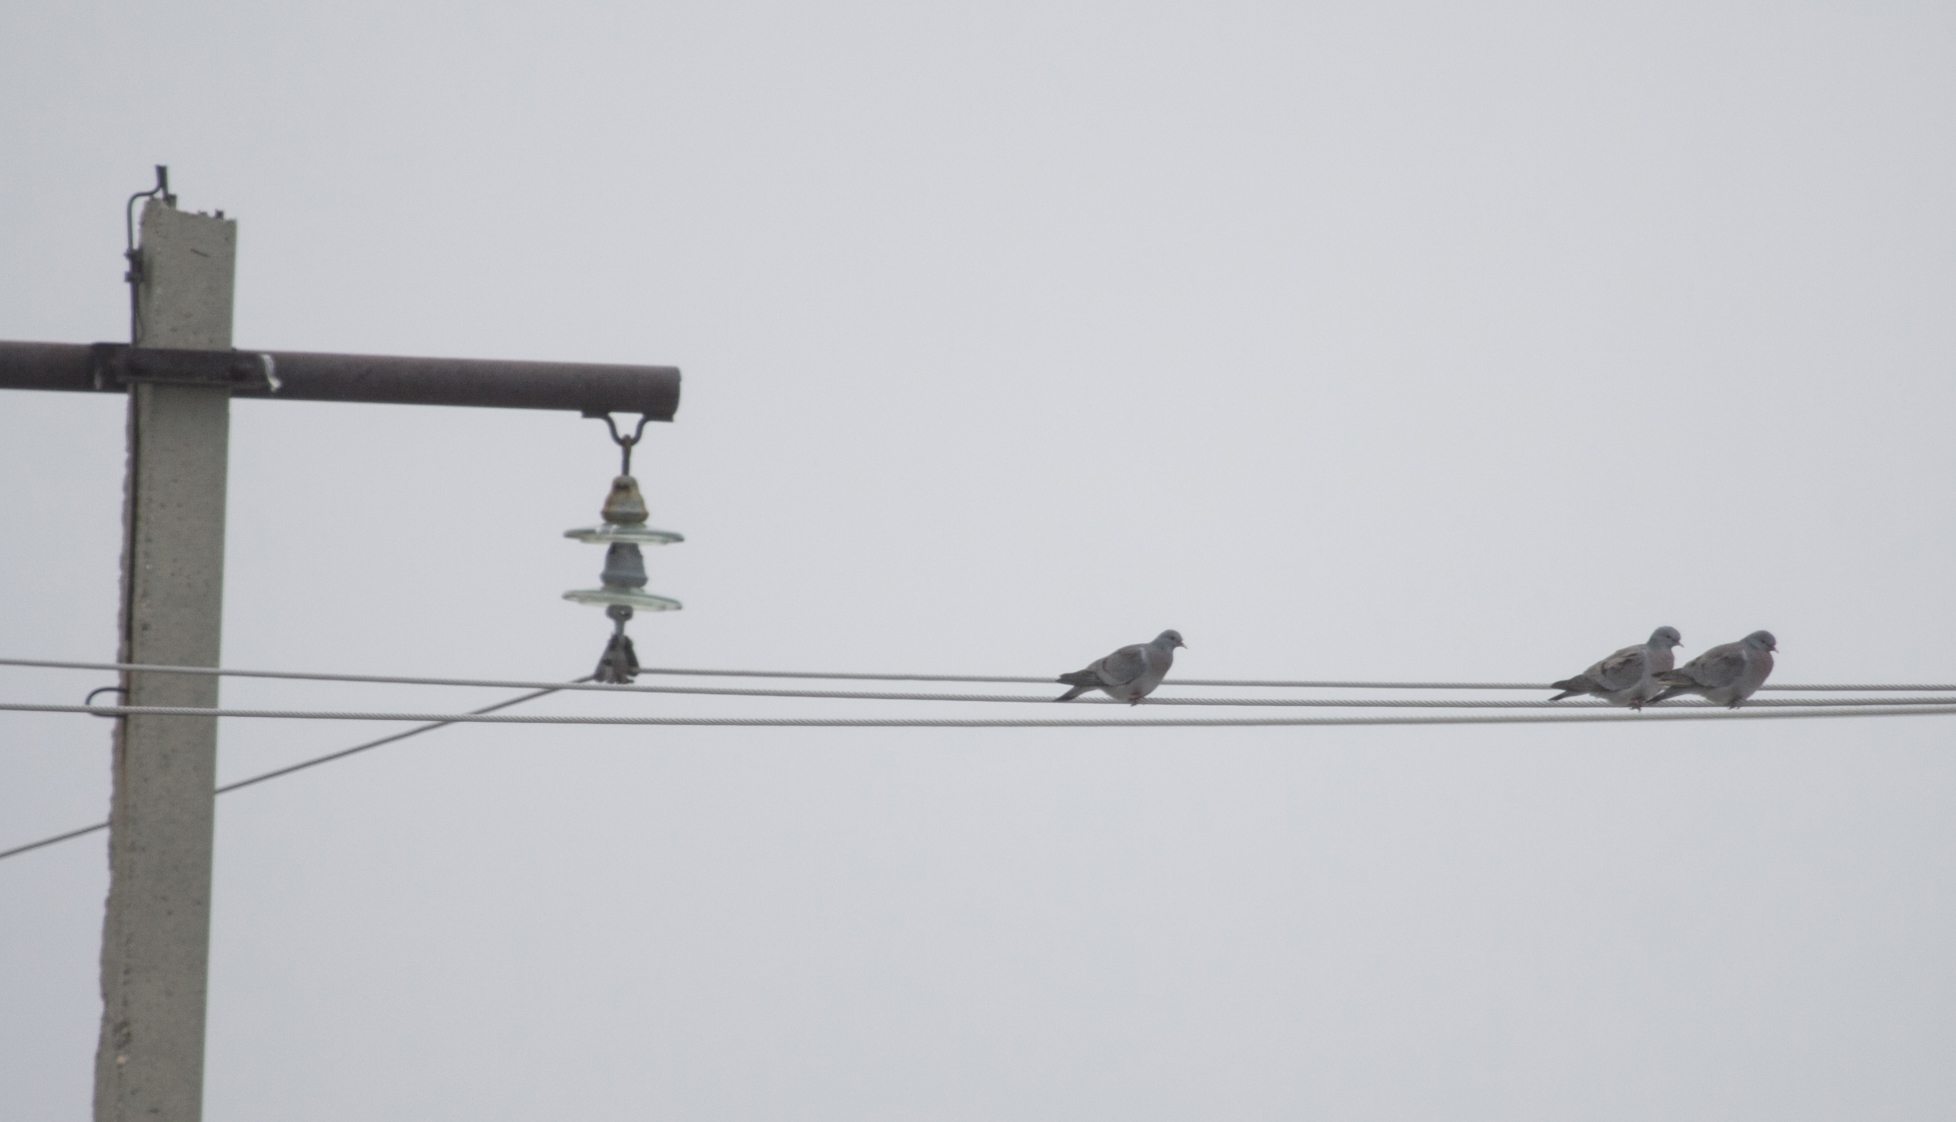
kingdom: Animalia
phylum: Chordata
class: Aves
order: Columbiformes
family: Columbidae
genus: Columba
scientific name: Columba oenas
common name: Stock dove
